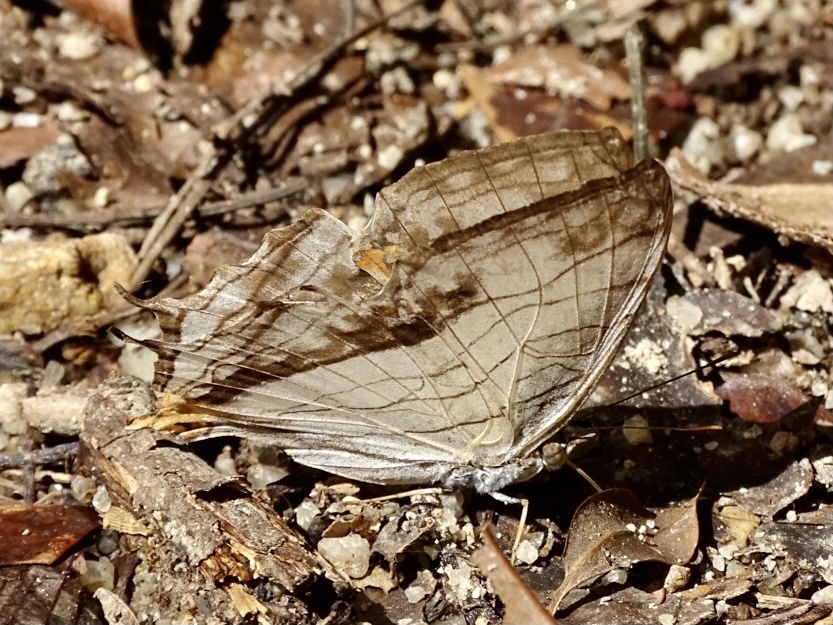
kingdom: Animalia
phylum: Arthropoda
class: Insecta
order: Lepidoptera
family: Nymphalidae
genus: Cyrestis
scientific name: Cyrestis thyodamas
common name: Common mapwing
